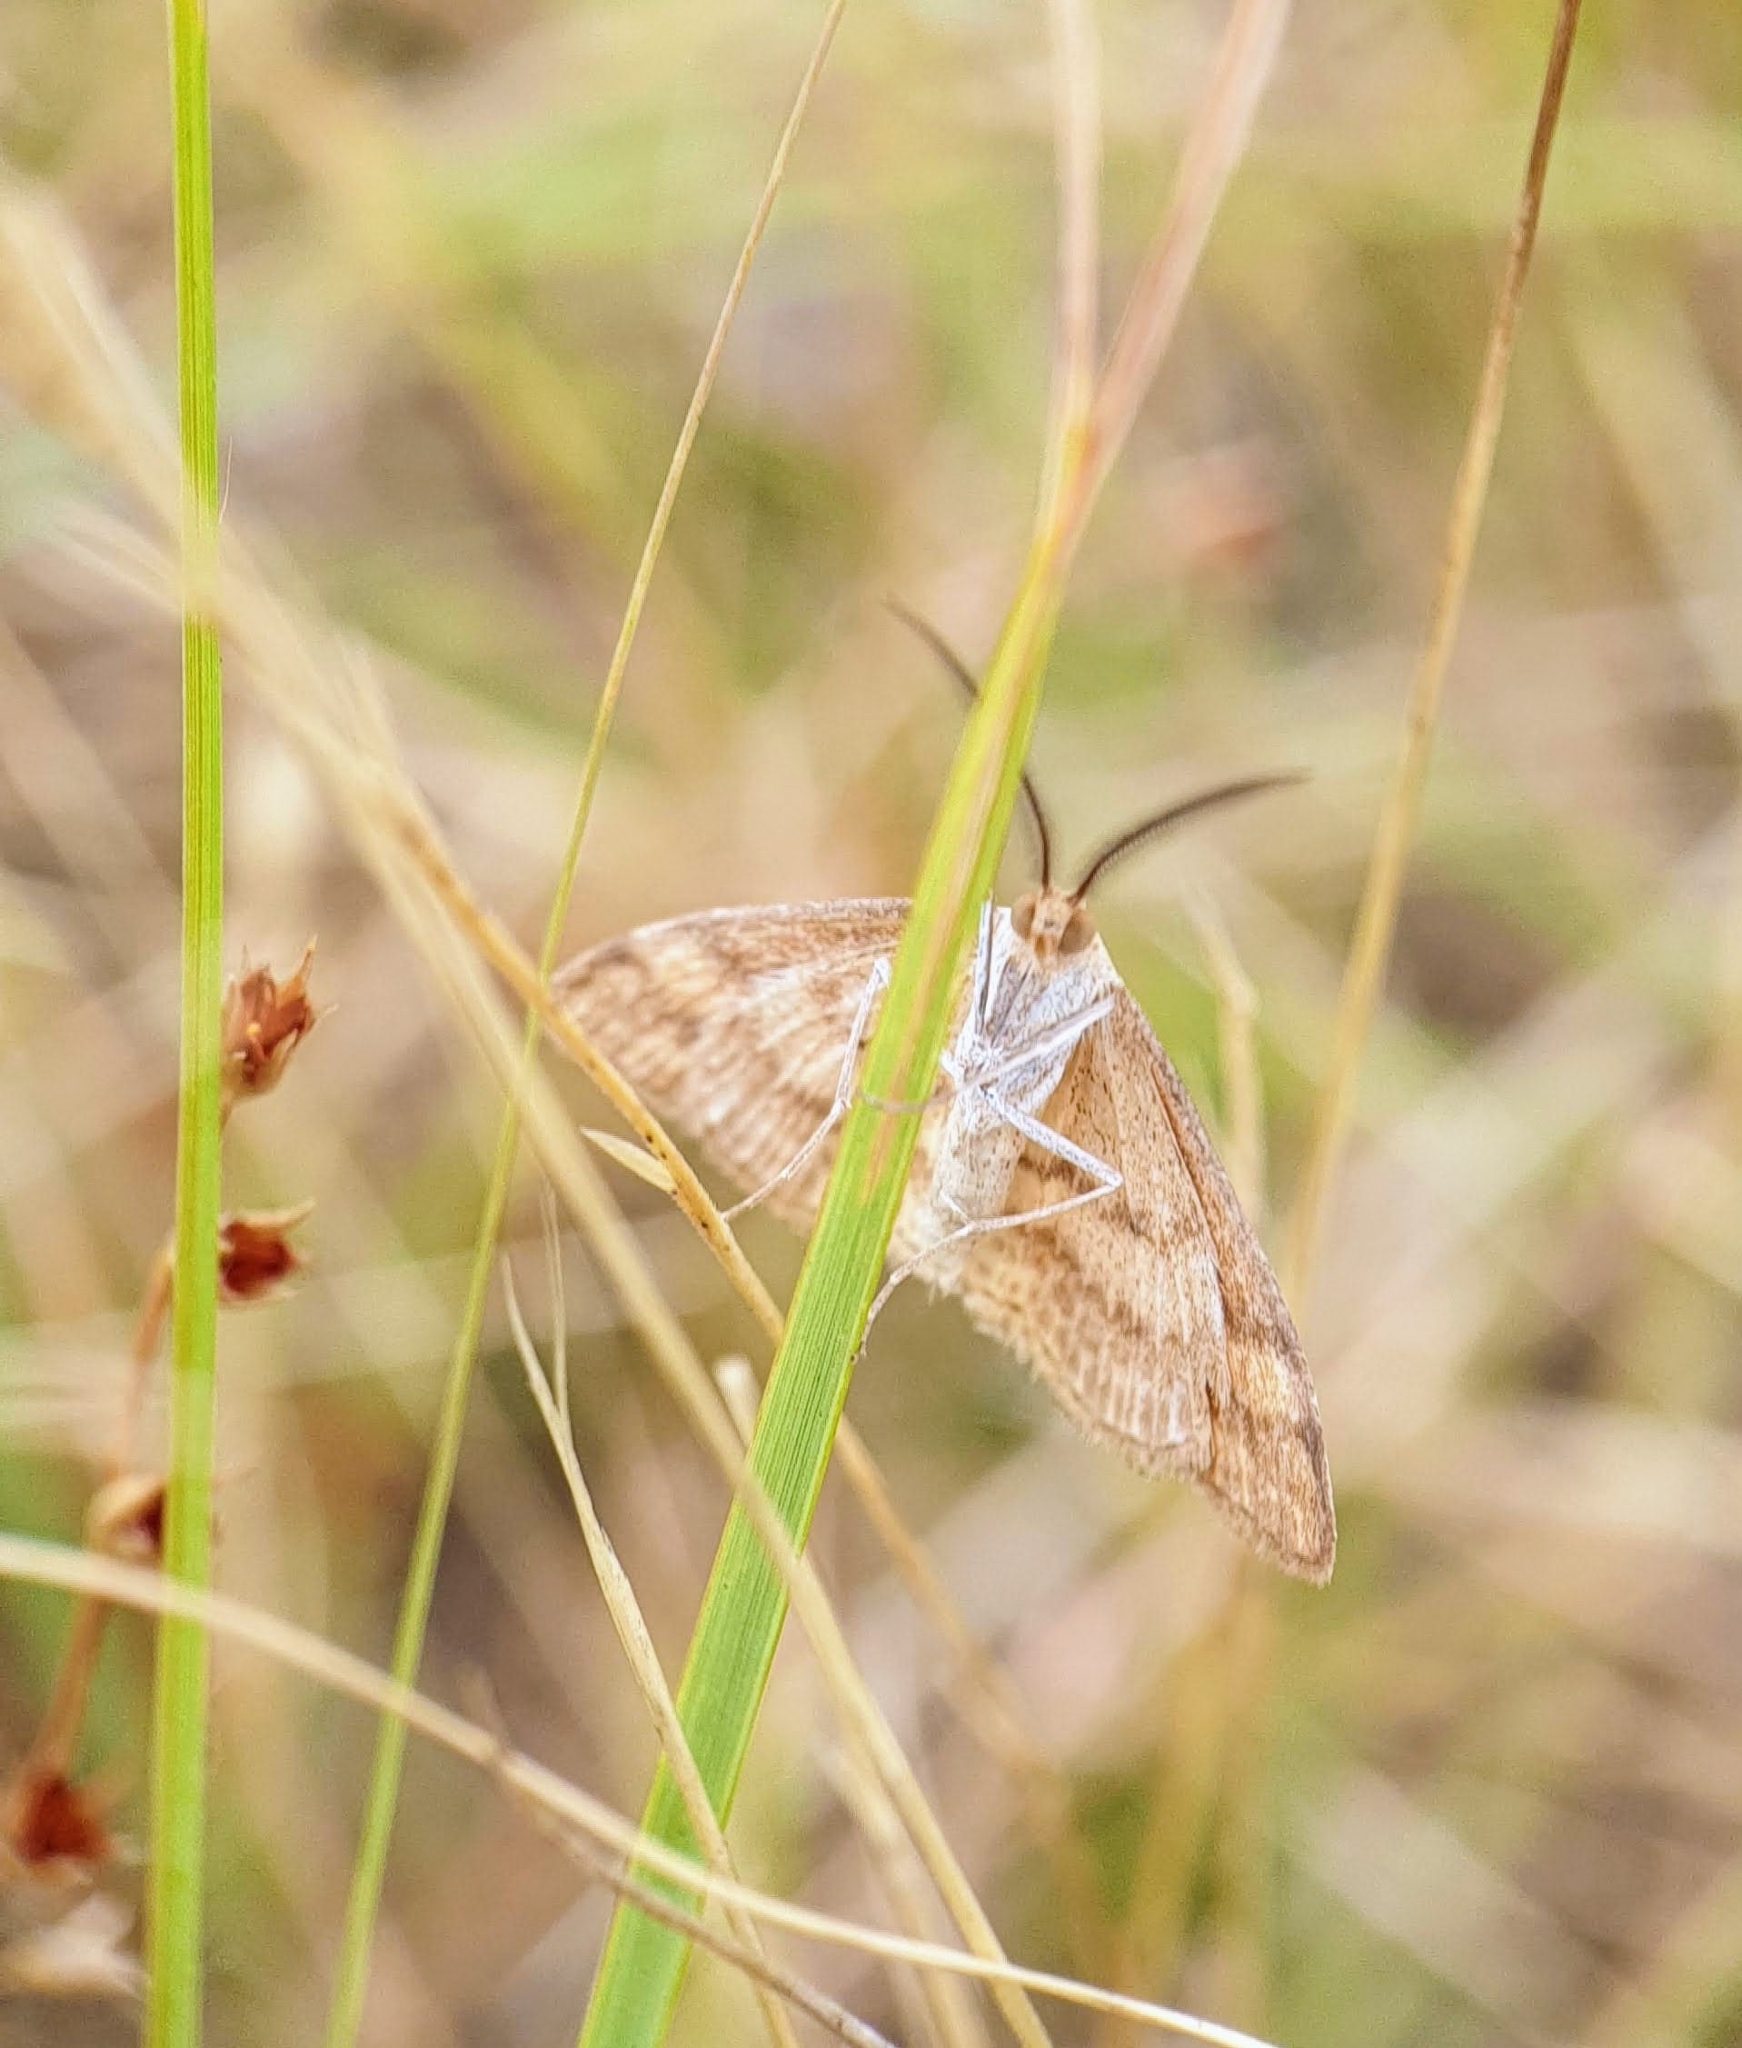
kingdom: Animalia
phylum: Arthropoda
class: Insecta
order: Lepidoptera
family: Geometridae
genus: Scopula
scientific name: Scopula rubraria
